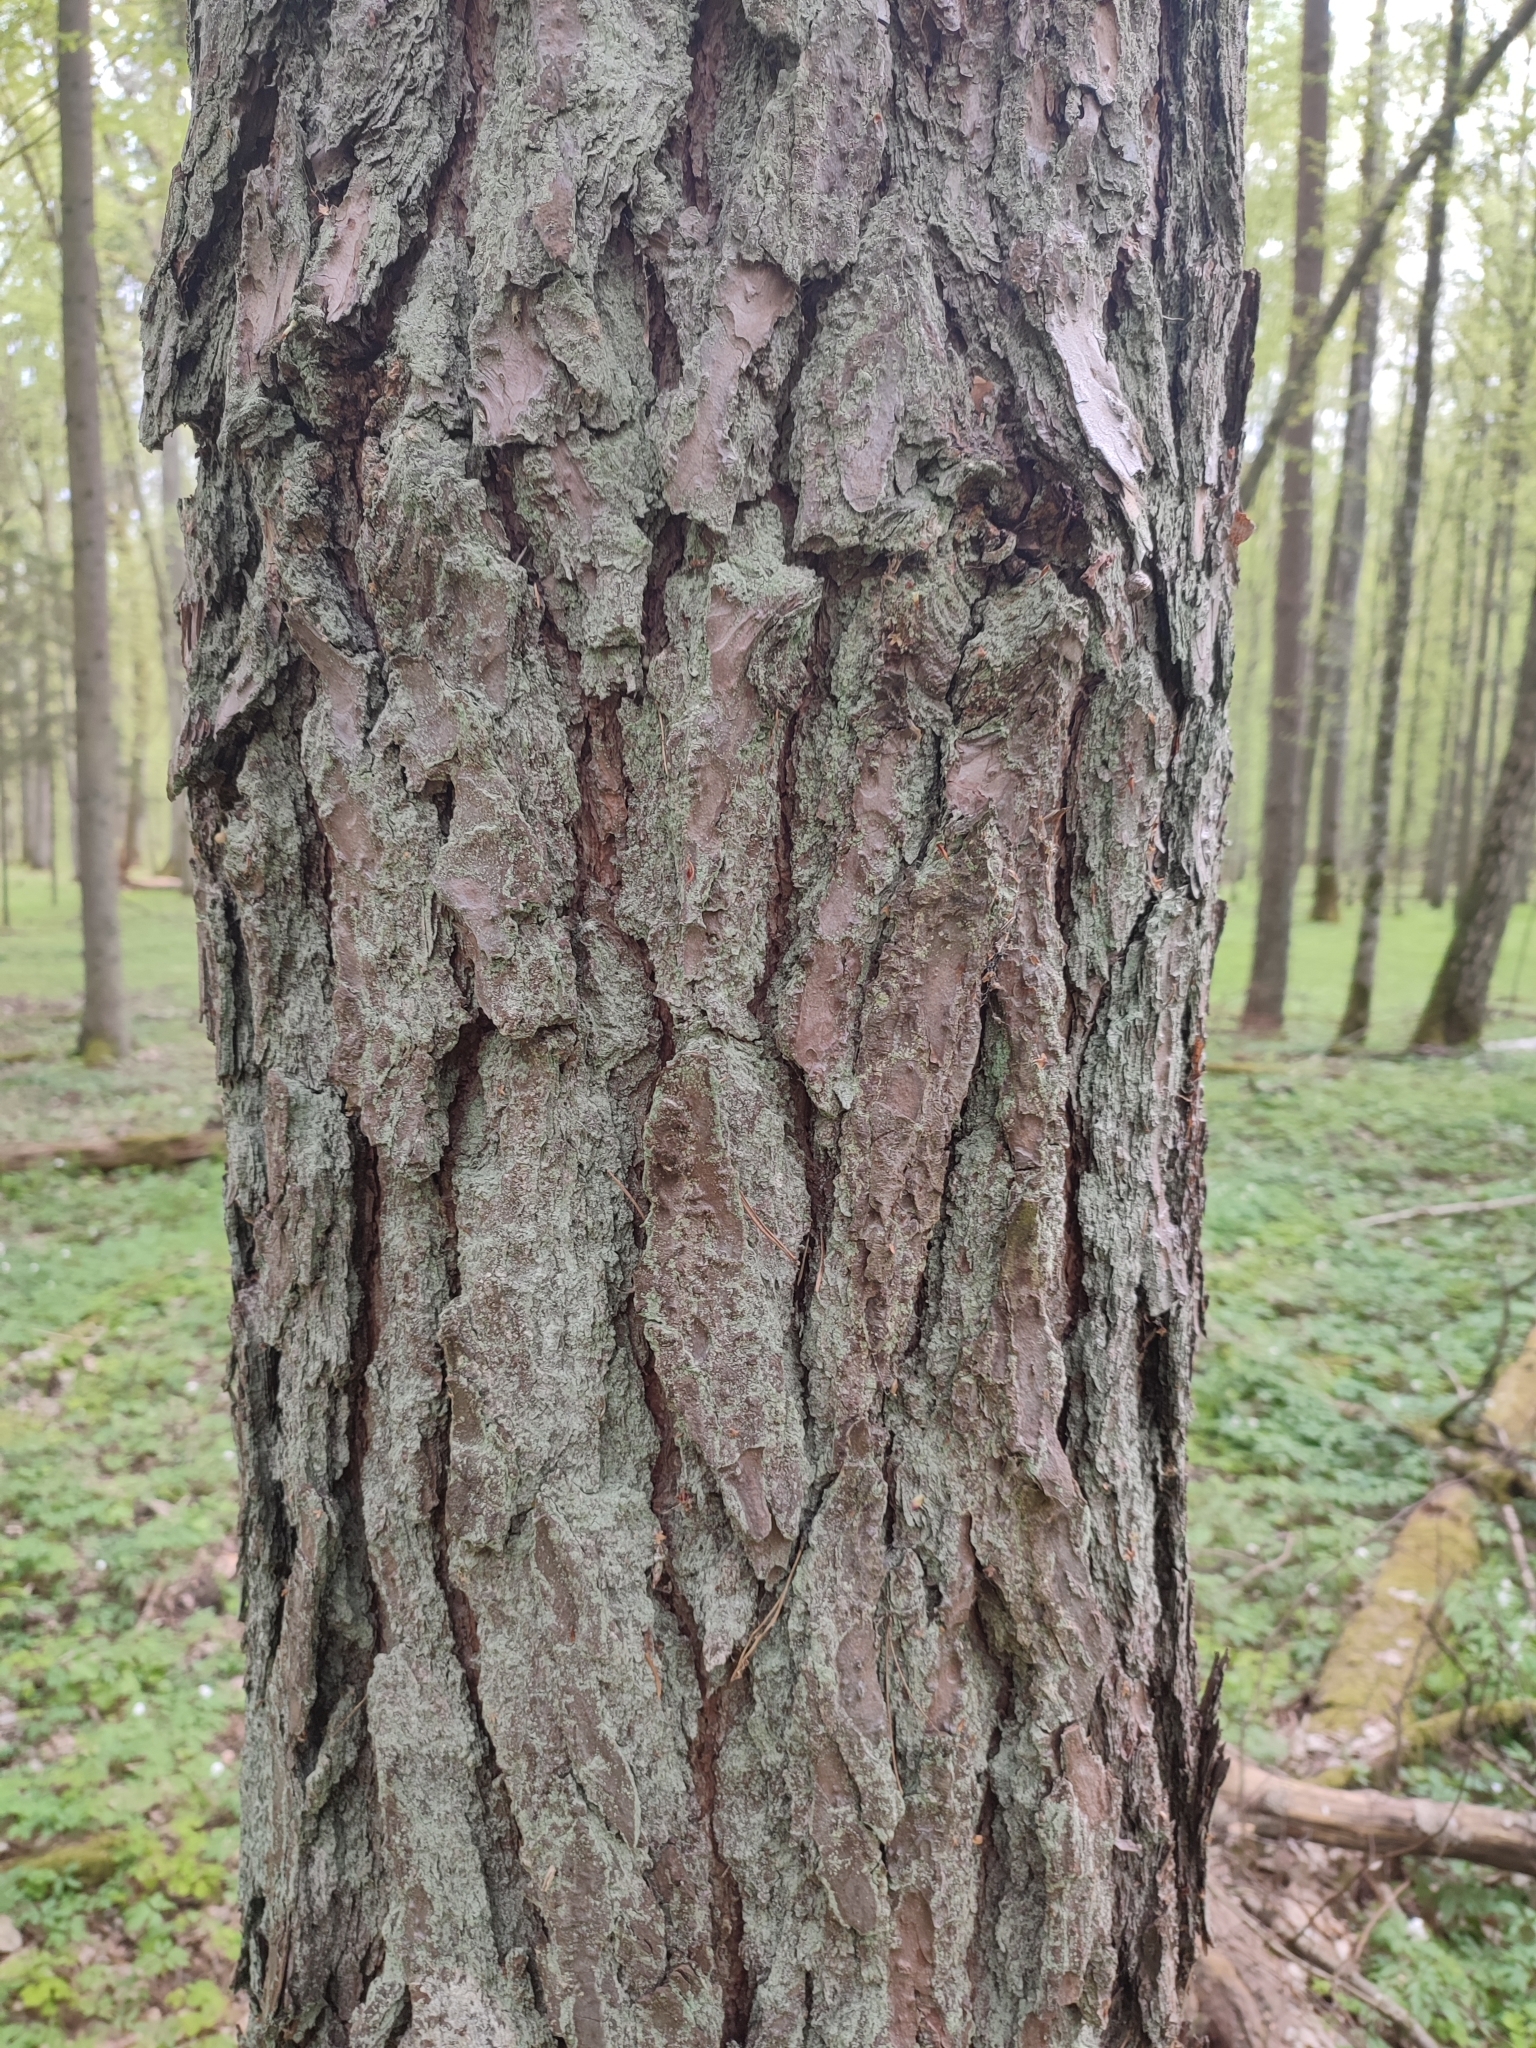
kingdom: Plantae
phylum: Tracheophyta
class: Pinopsida
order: Pinales
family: Pinaceae
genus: Pinus
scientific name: Pinus sylvestris
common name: Scots pine
